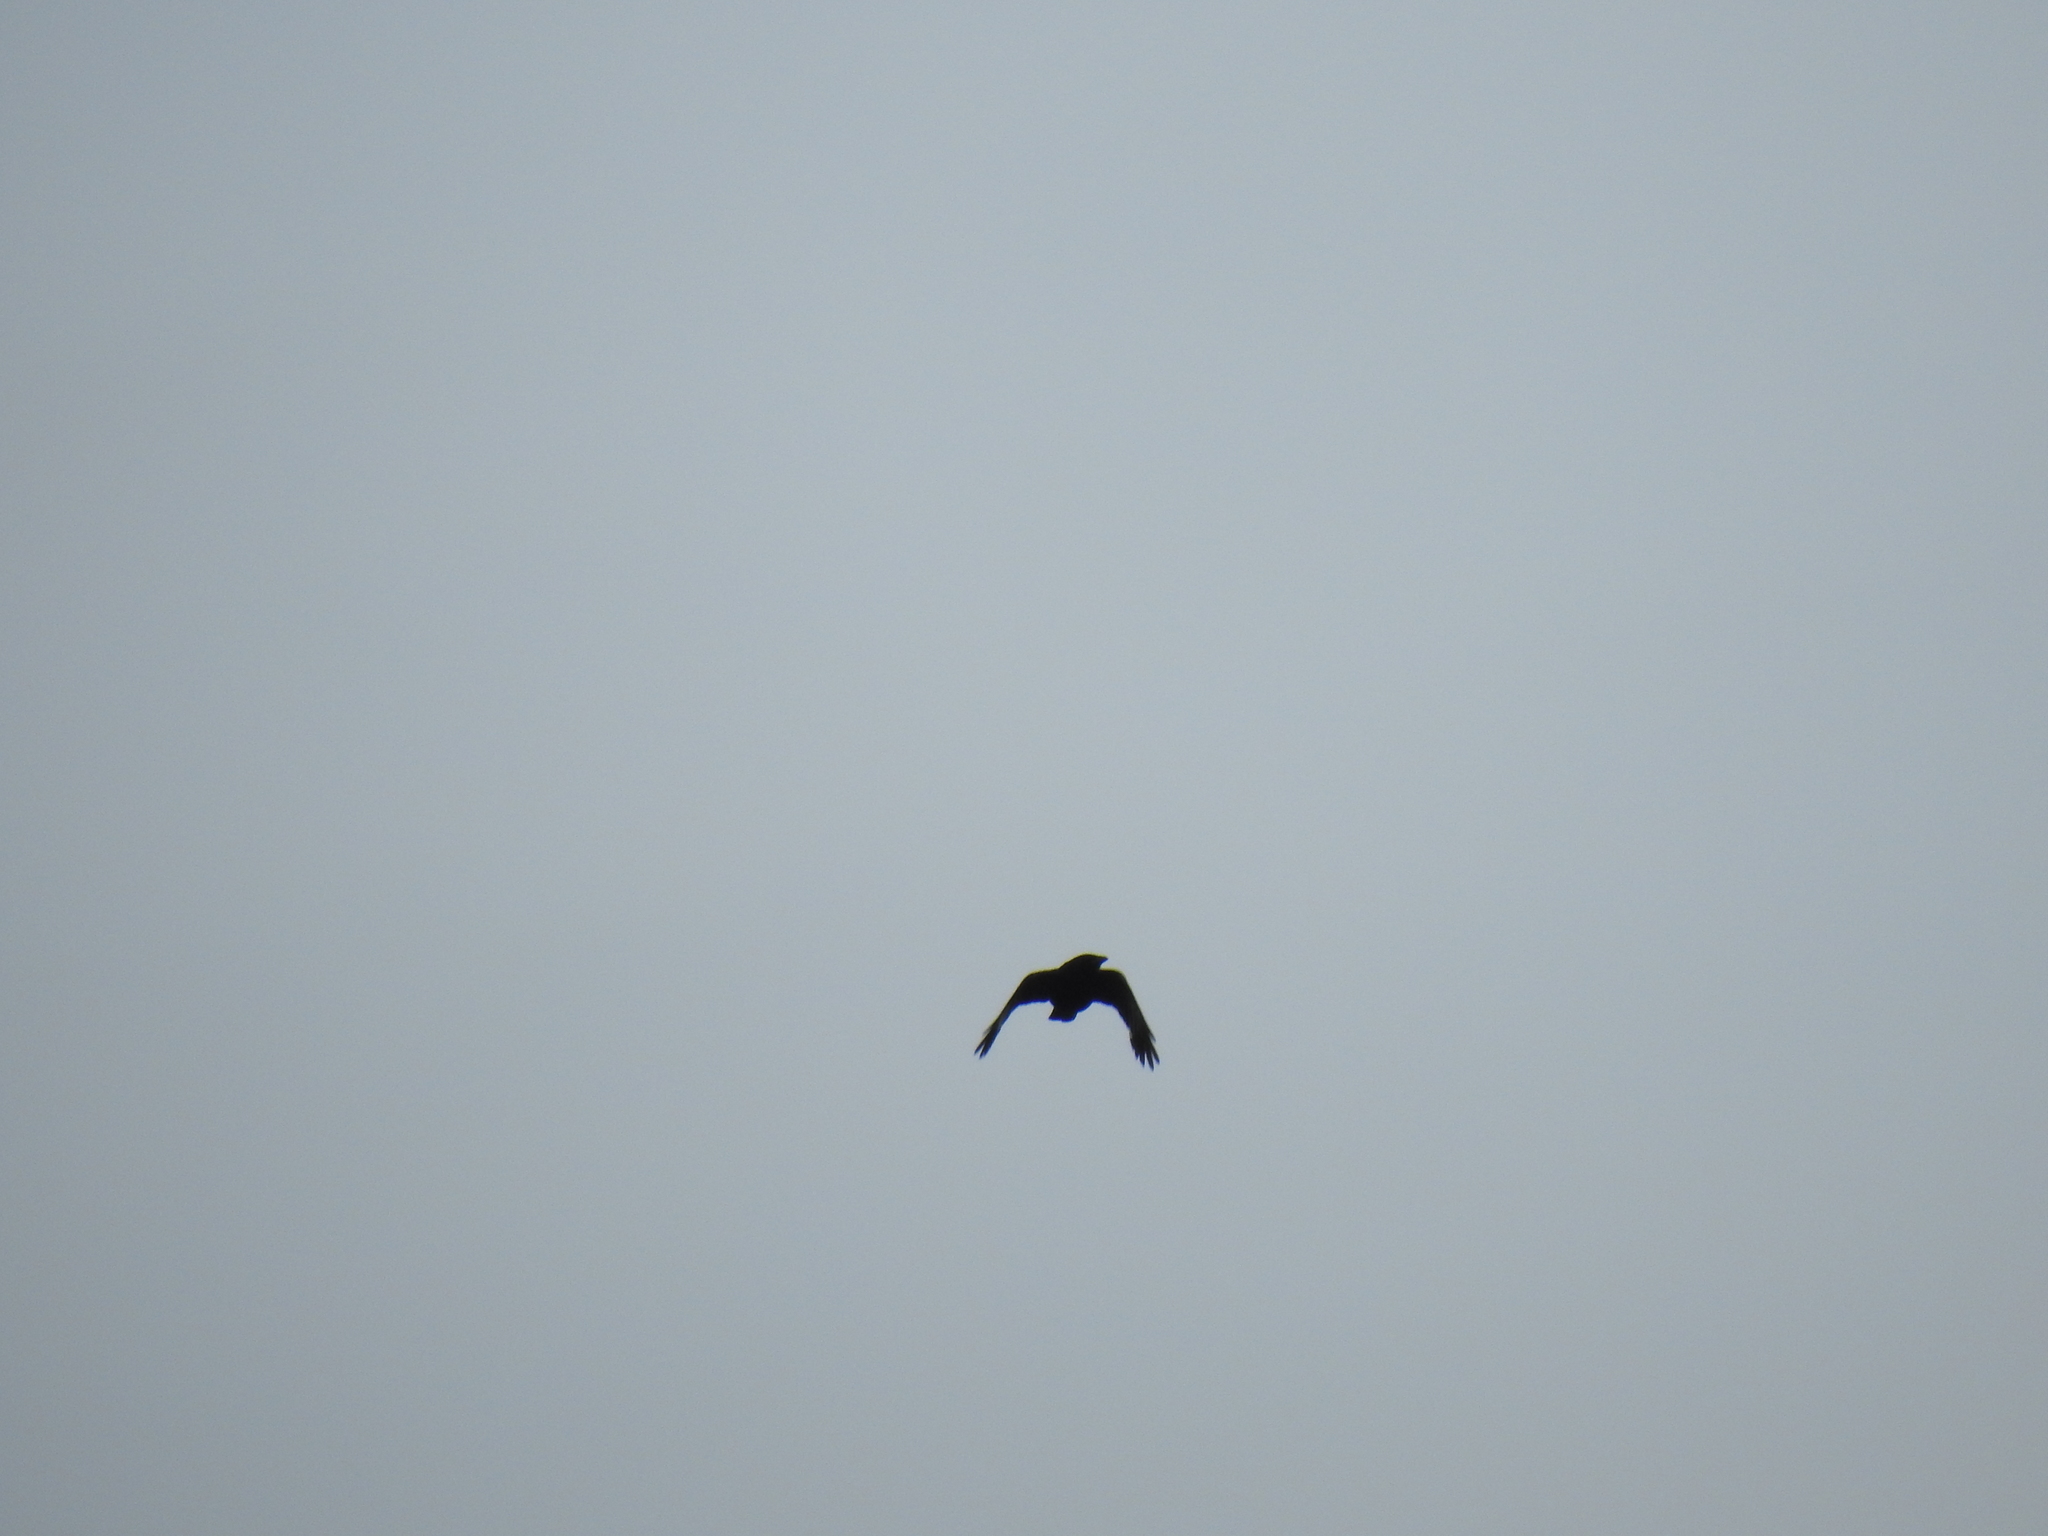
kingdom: Animalia
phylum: Chordata
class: Aves
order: Passeriformes
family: Corvidae
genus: Corvus
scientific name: Corvus brachyrhynchos
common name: American crow
